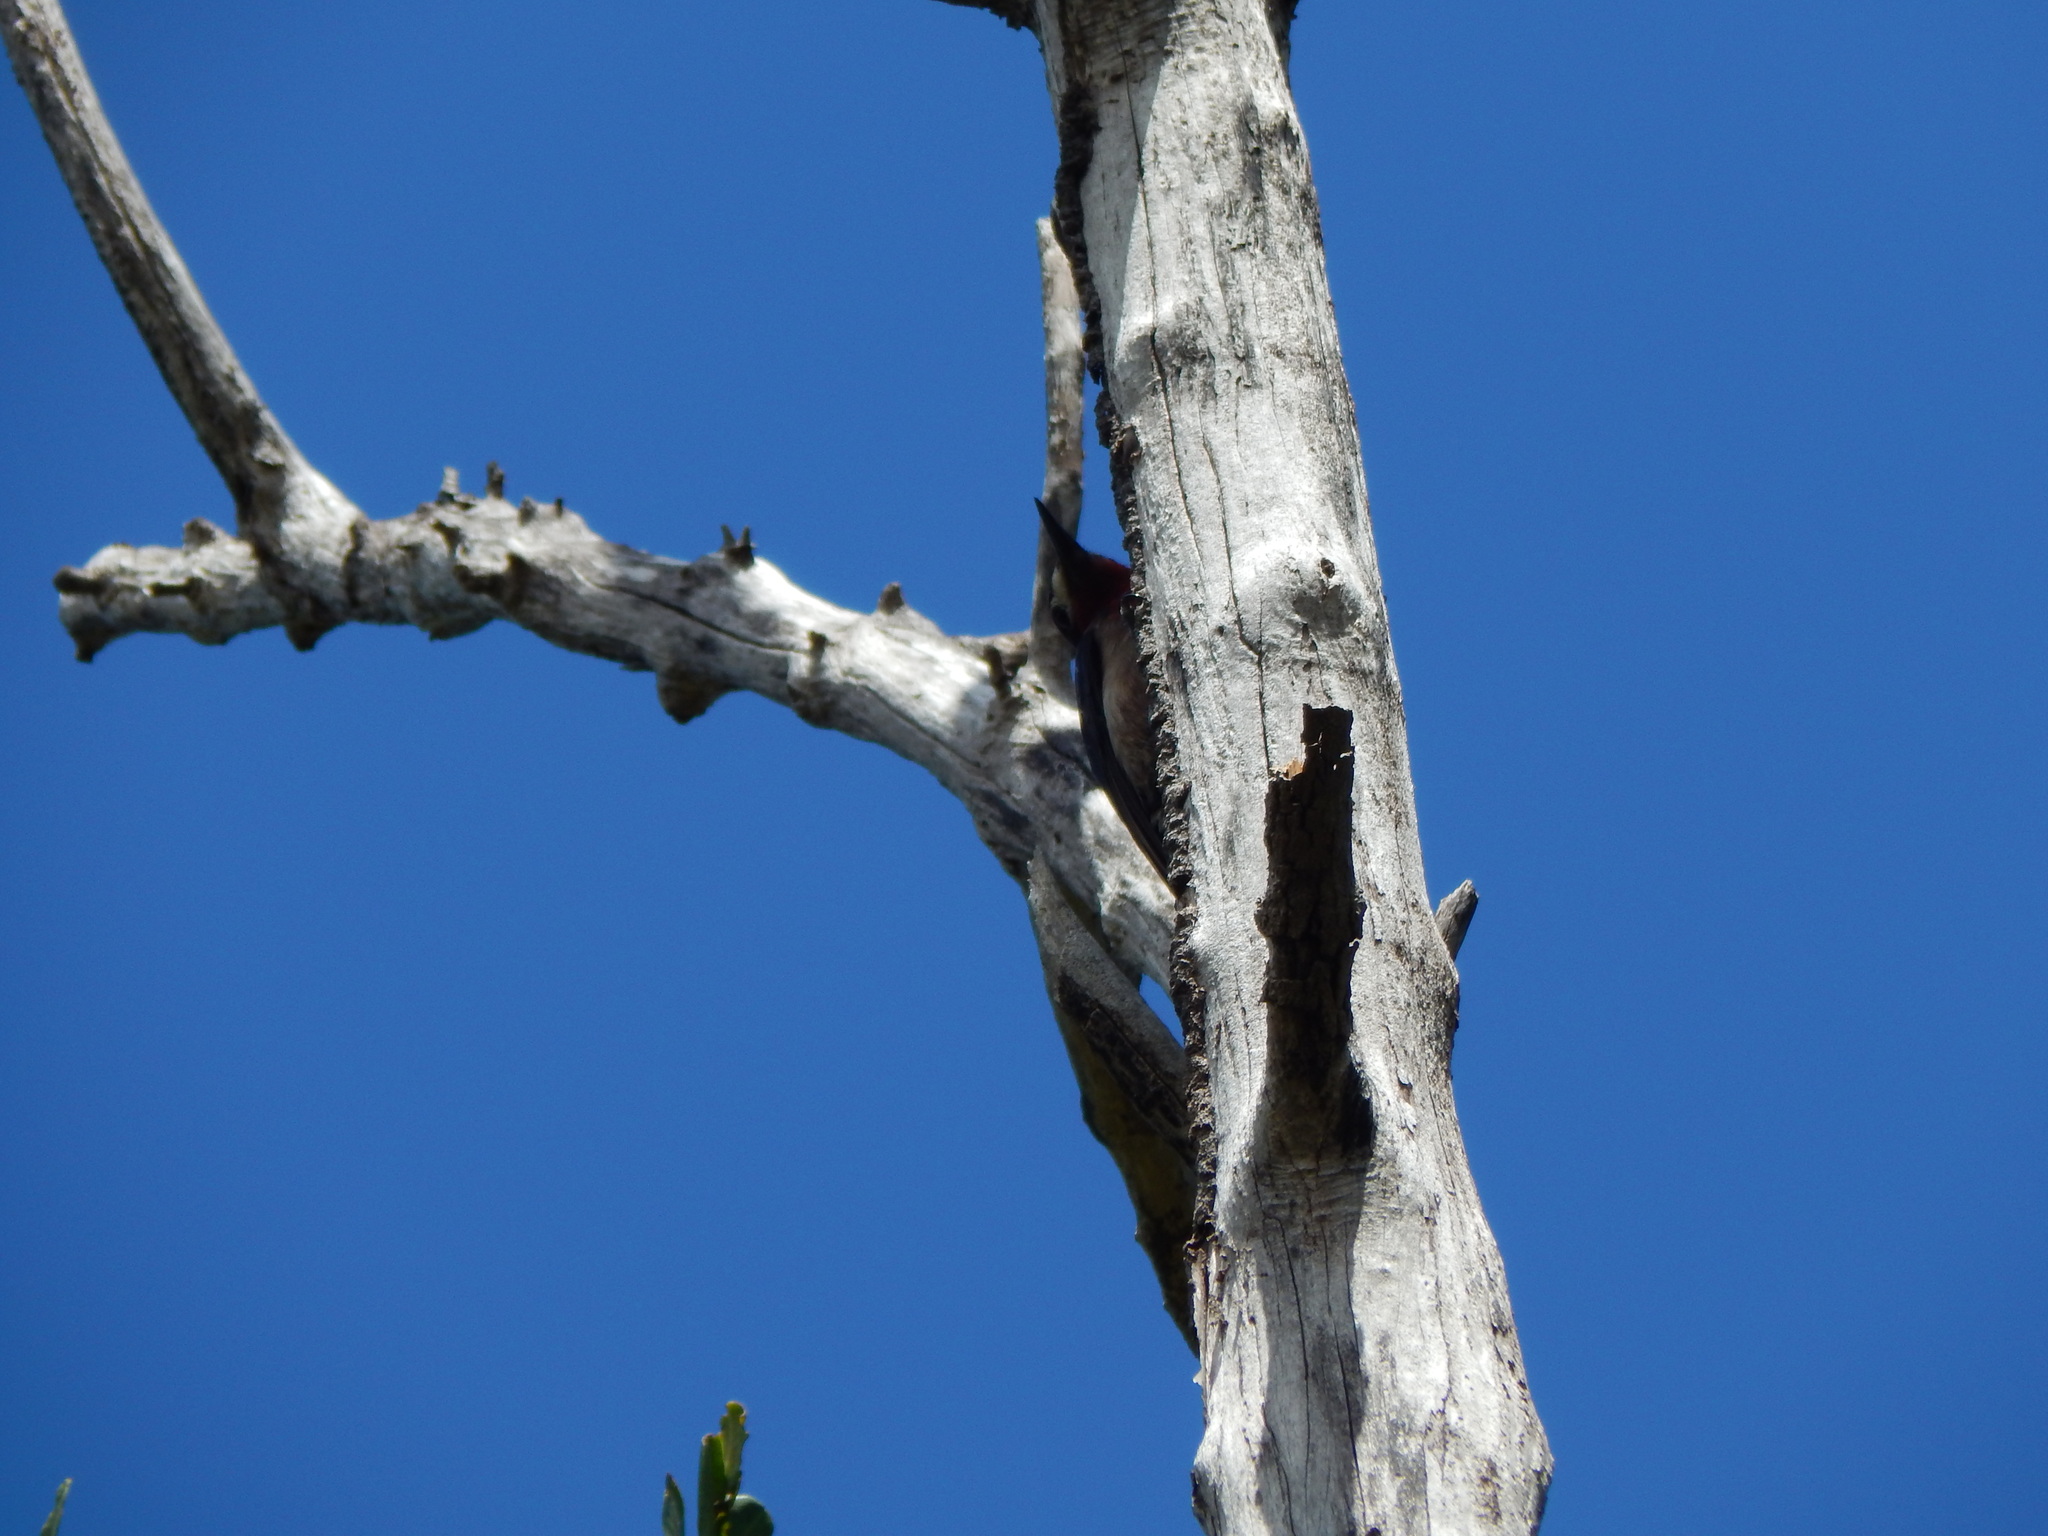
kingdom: Animalia
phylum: Chordata
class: Aves
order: Piciformes
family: Picidae
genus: Melanerpes
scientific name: Melanerpes portoricensis
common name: Puerto rican woodpecker
